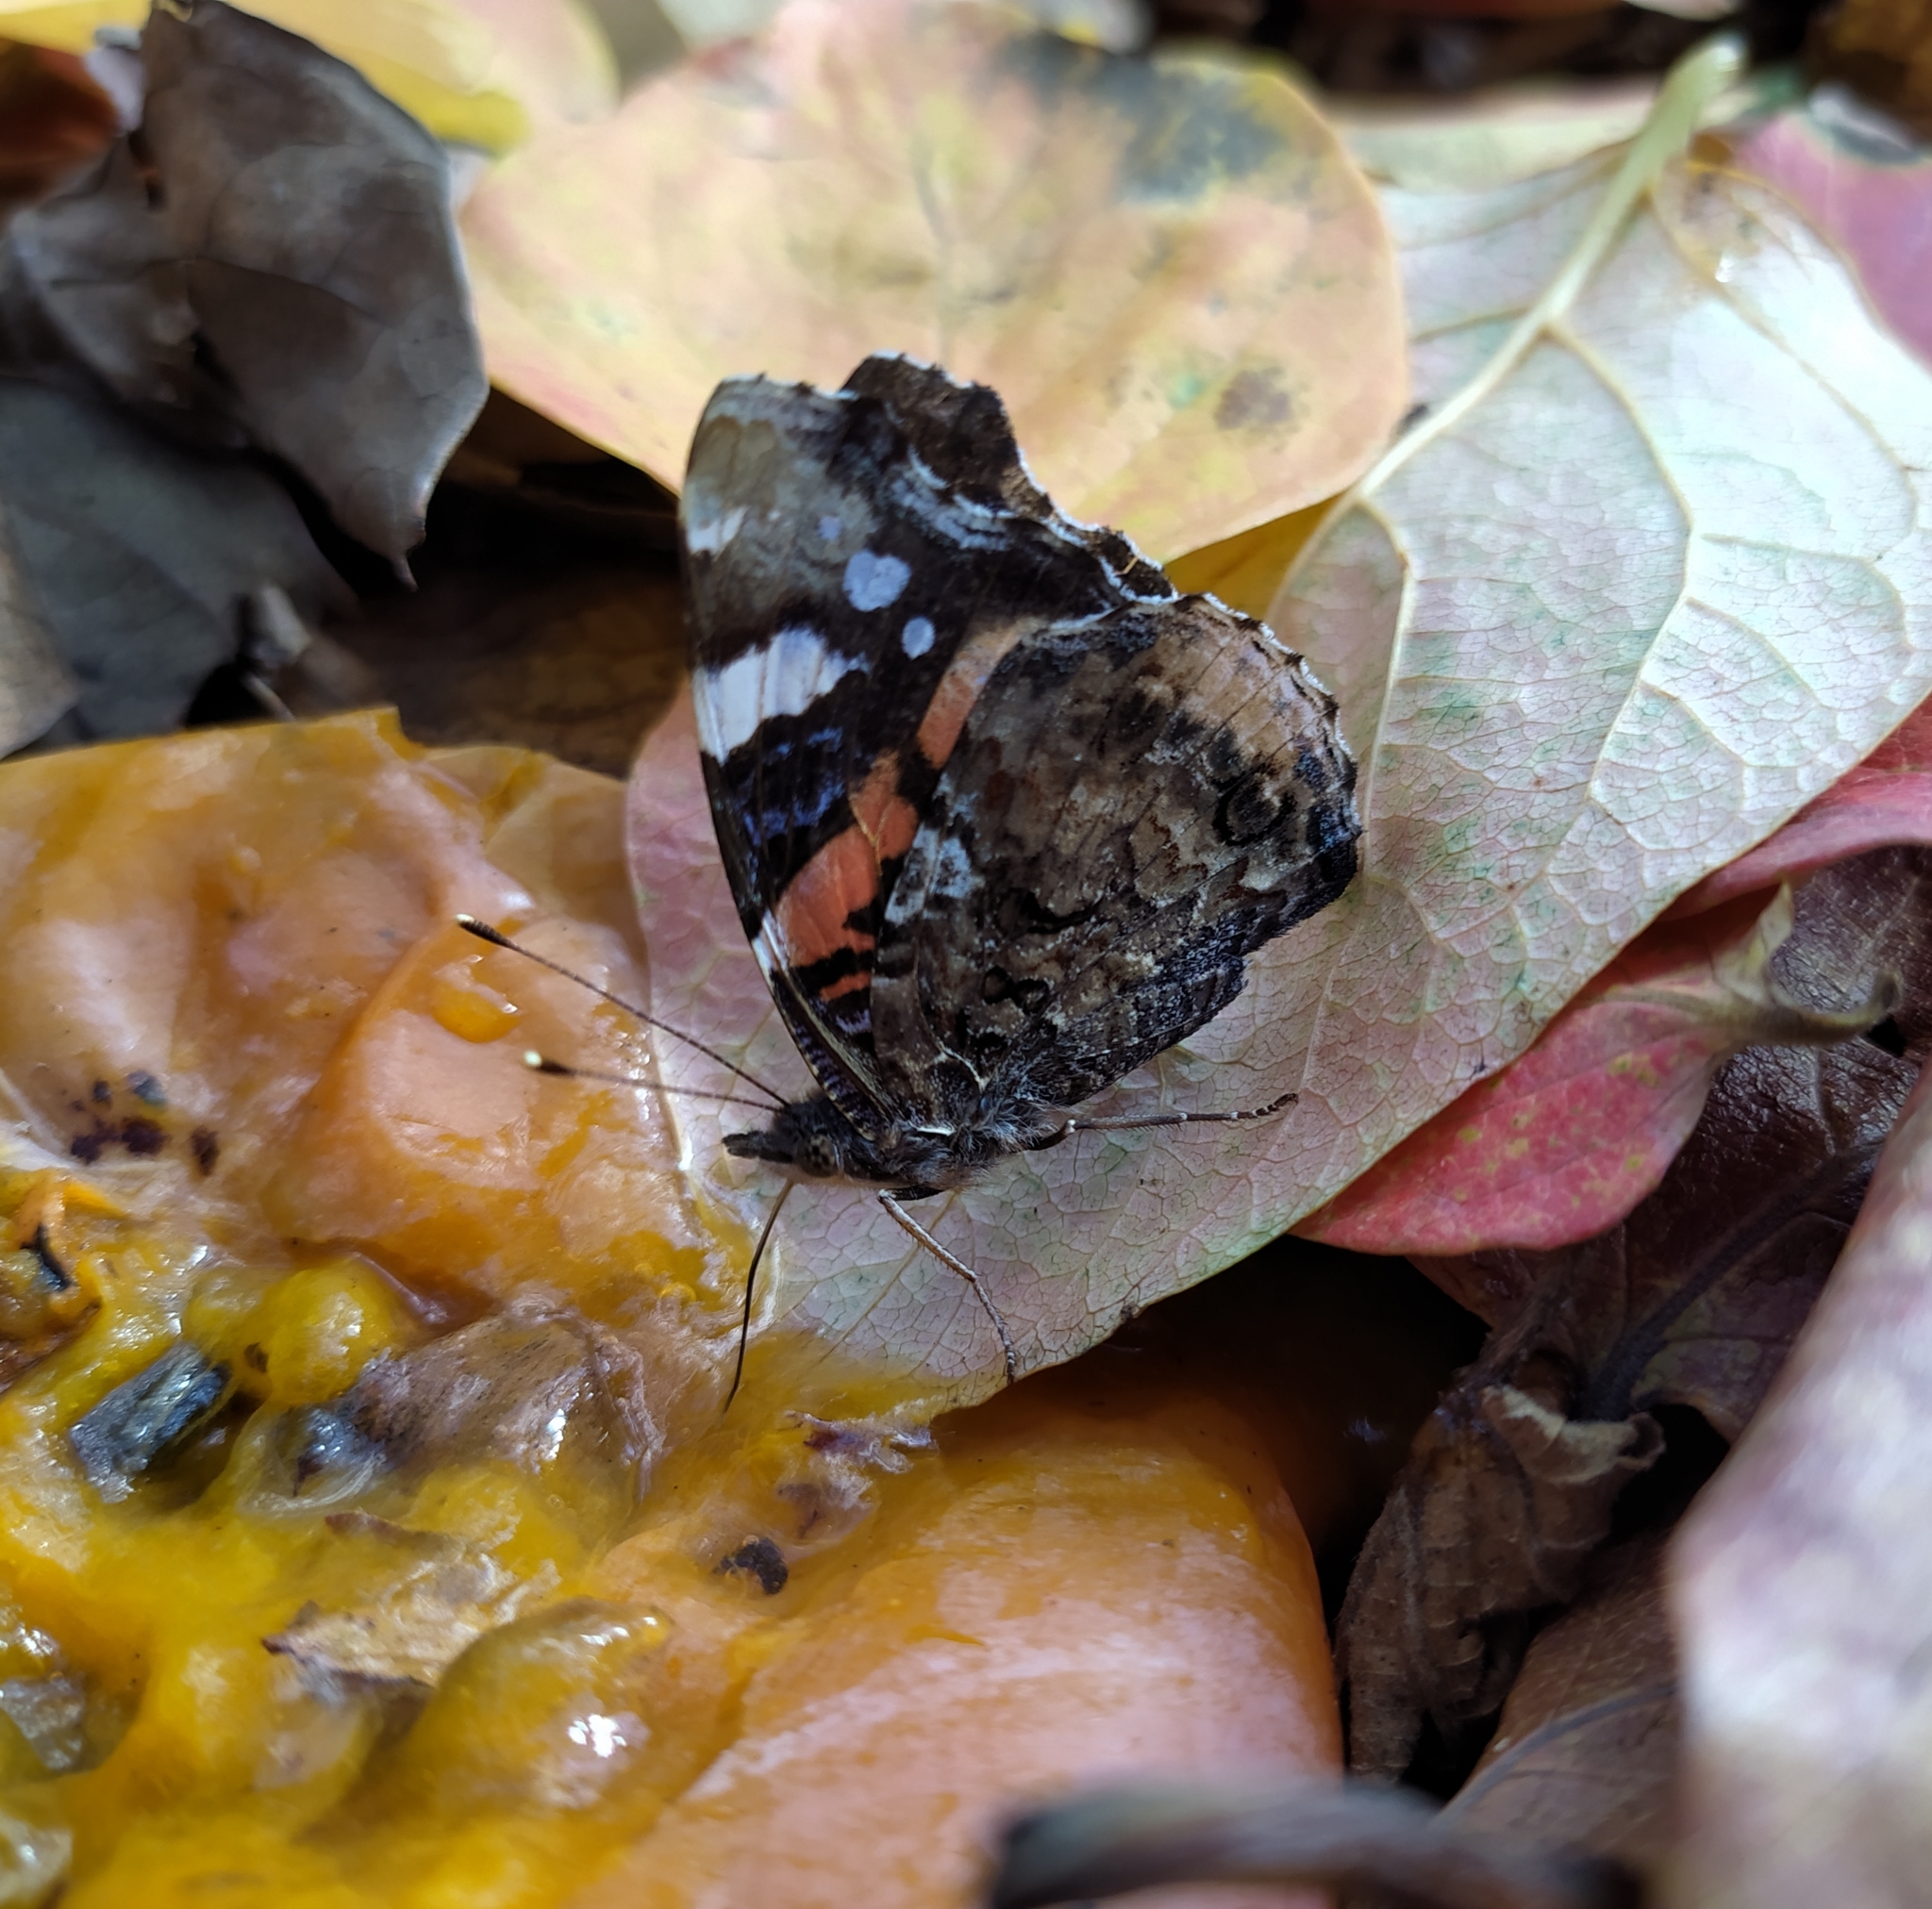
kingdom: Animalia
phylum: Arthropoda
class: Insecta
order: Lepidoptera
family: Nymphalidae
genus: Vanessa
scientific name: Vanessa atalanta
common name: Red admiral
